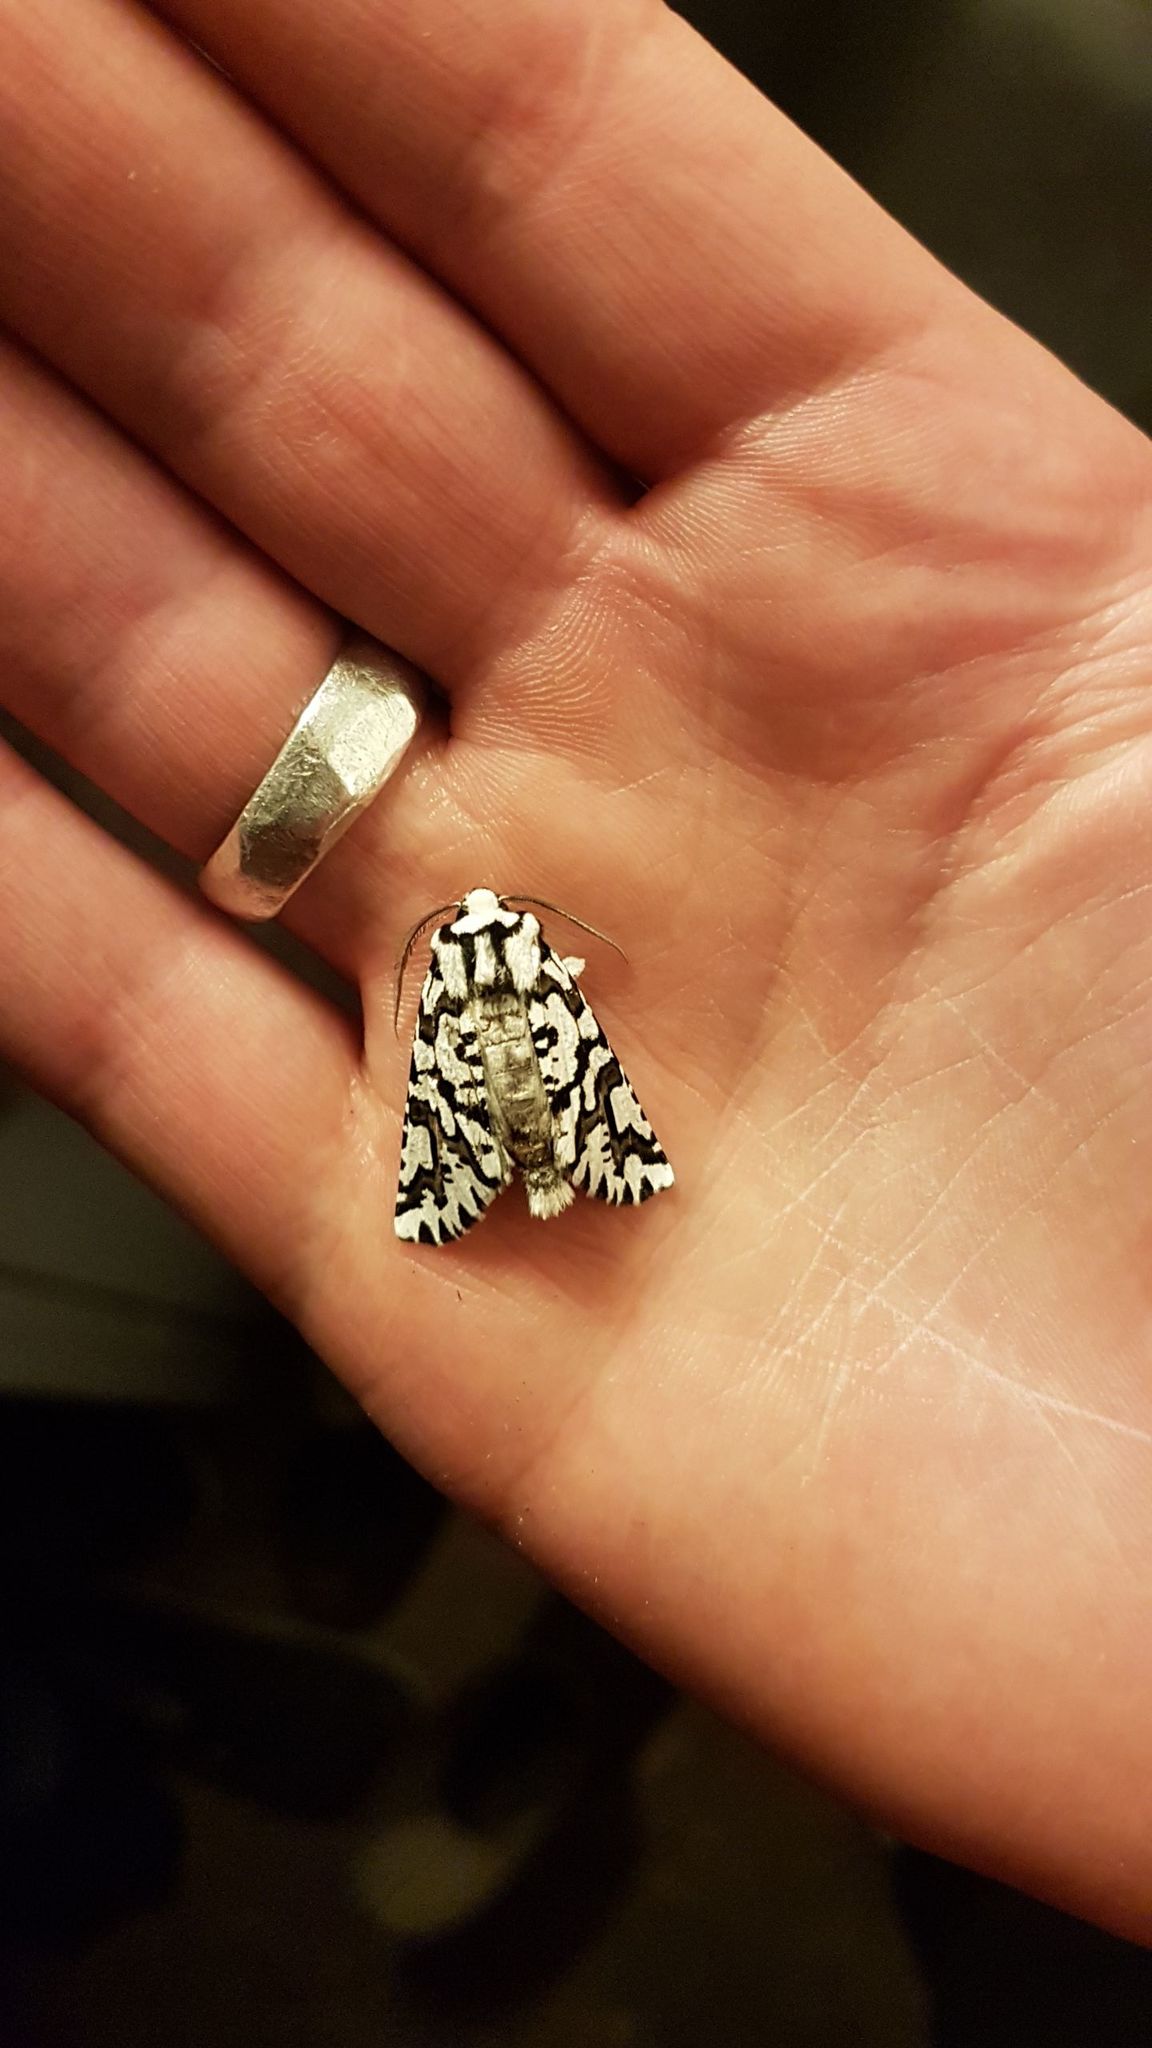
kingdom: Animalia
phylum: Arthropoda
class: Insecta
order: Lepidoptera
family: Geometridae
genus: Declana
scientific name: Declana
